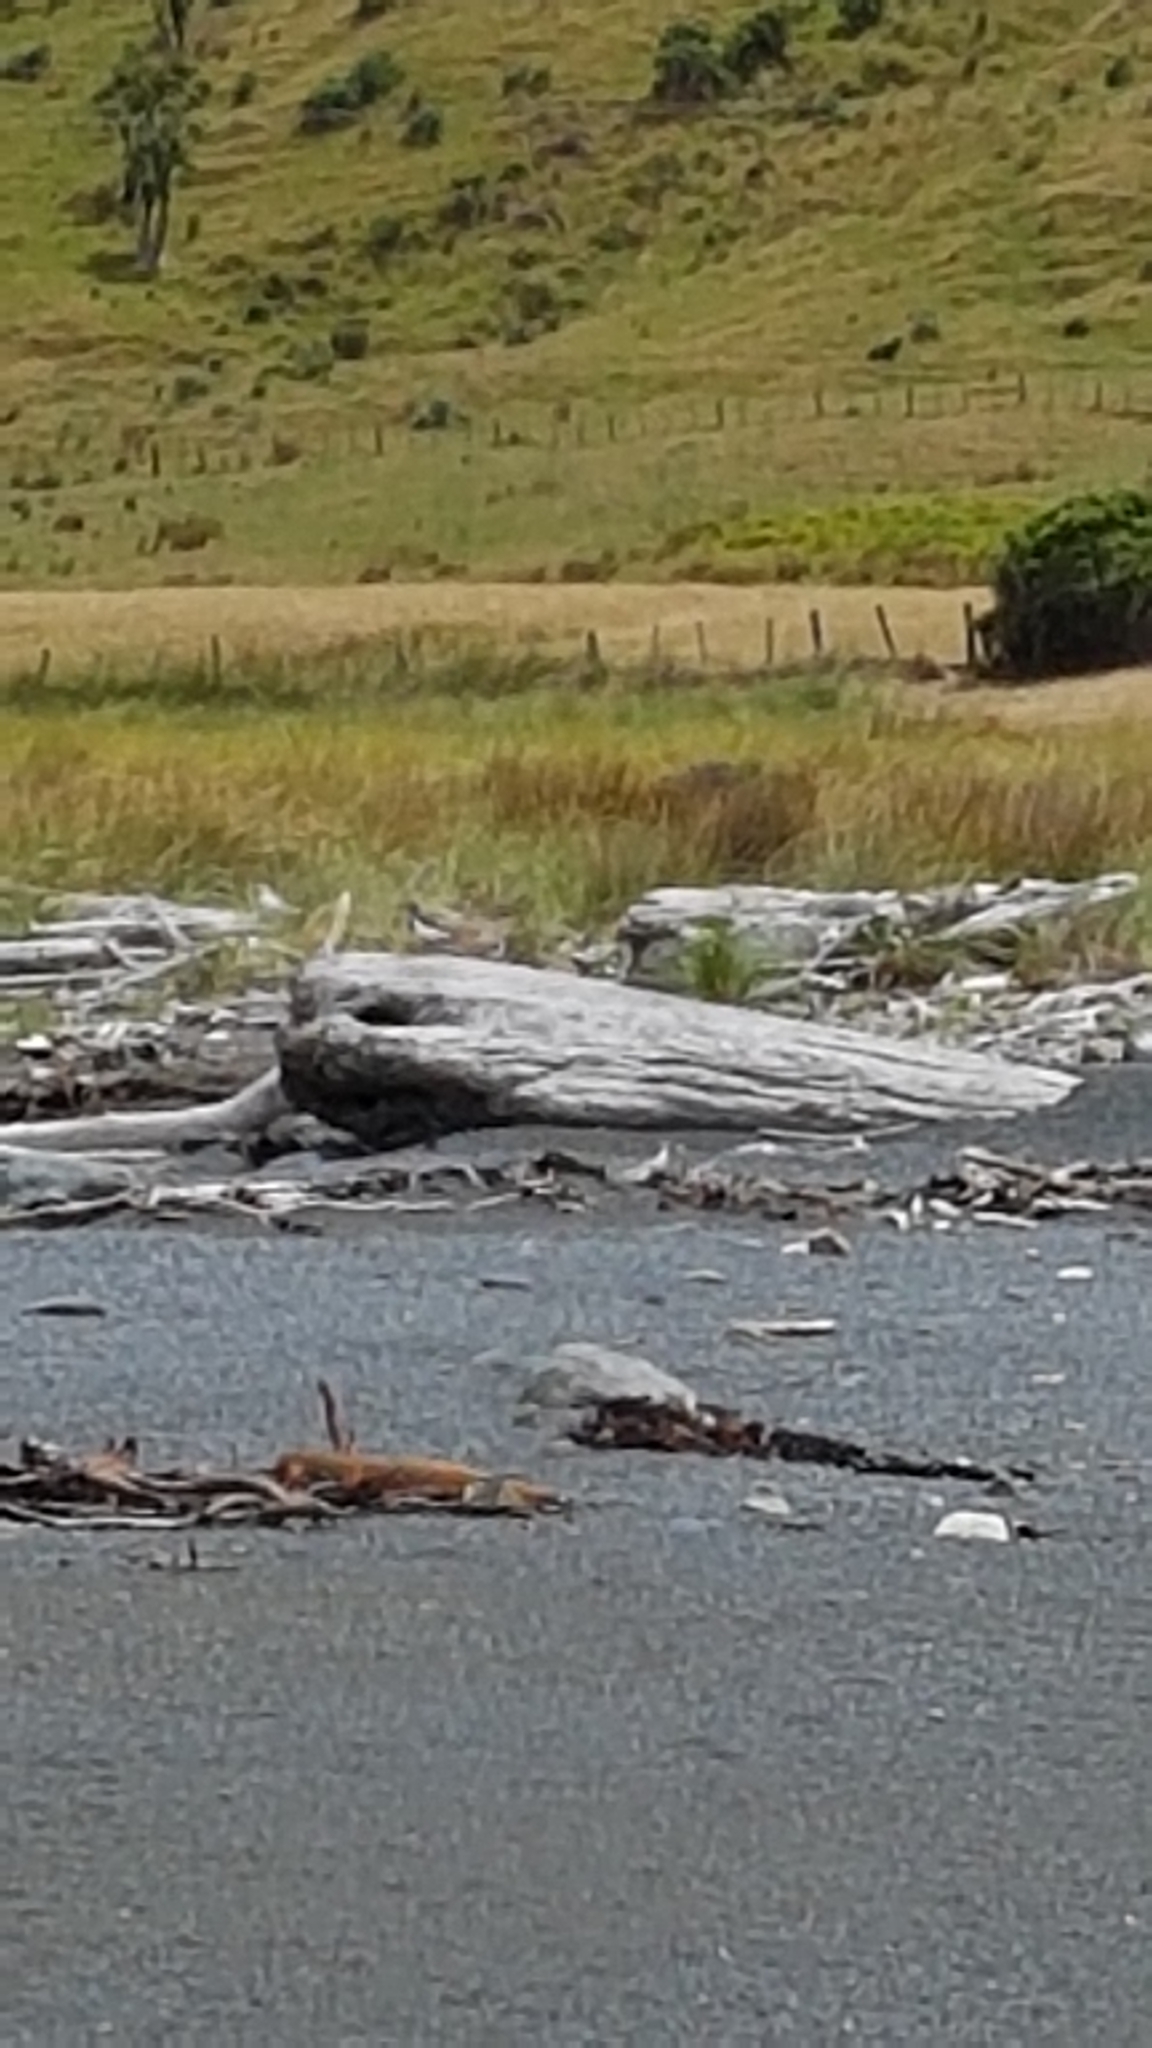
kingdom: Animalia
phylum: Chordata
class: Aves
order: Charadriiformes
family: Charadriidae
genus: Anarhynchus
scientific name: Anarhynchus
